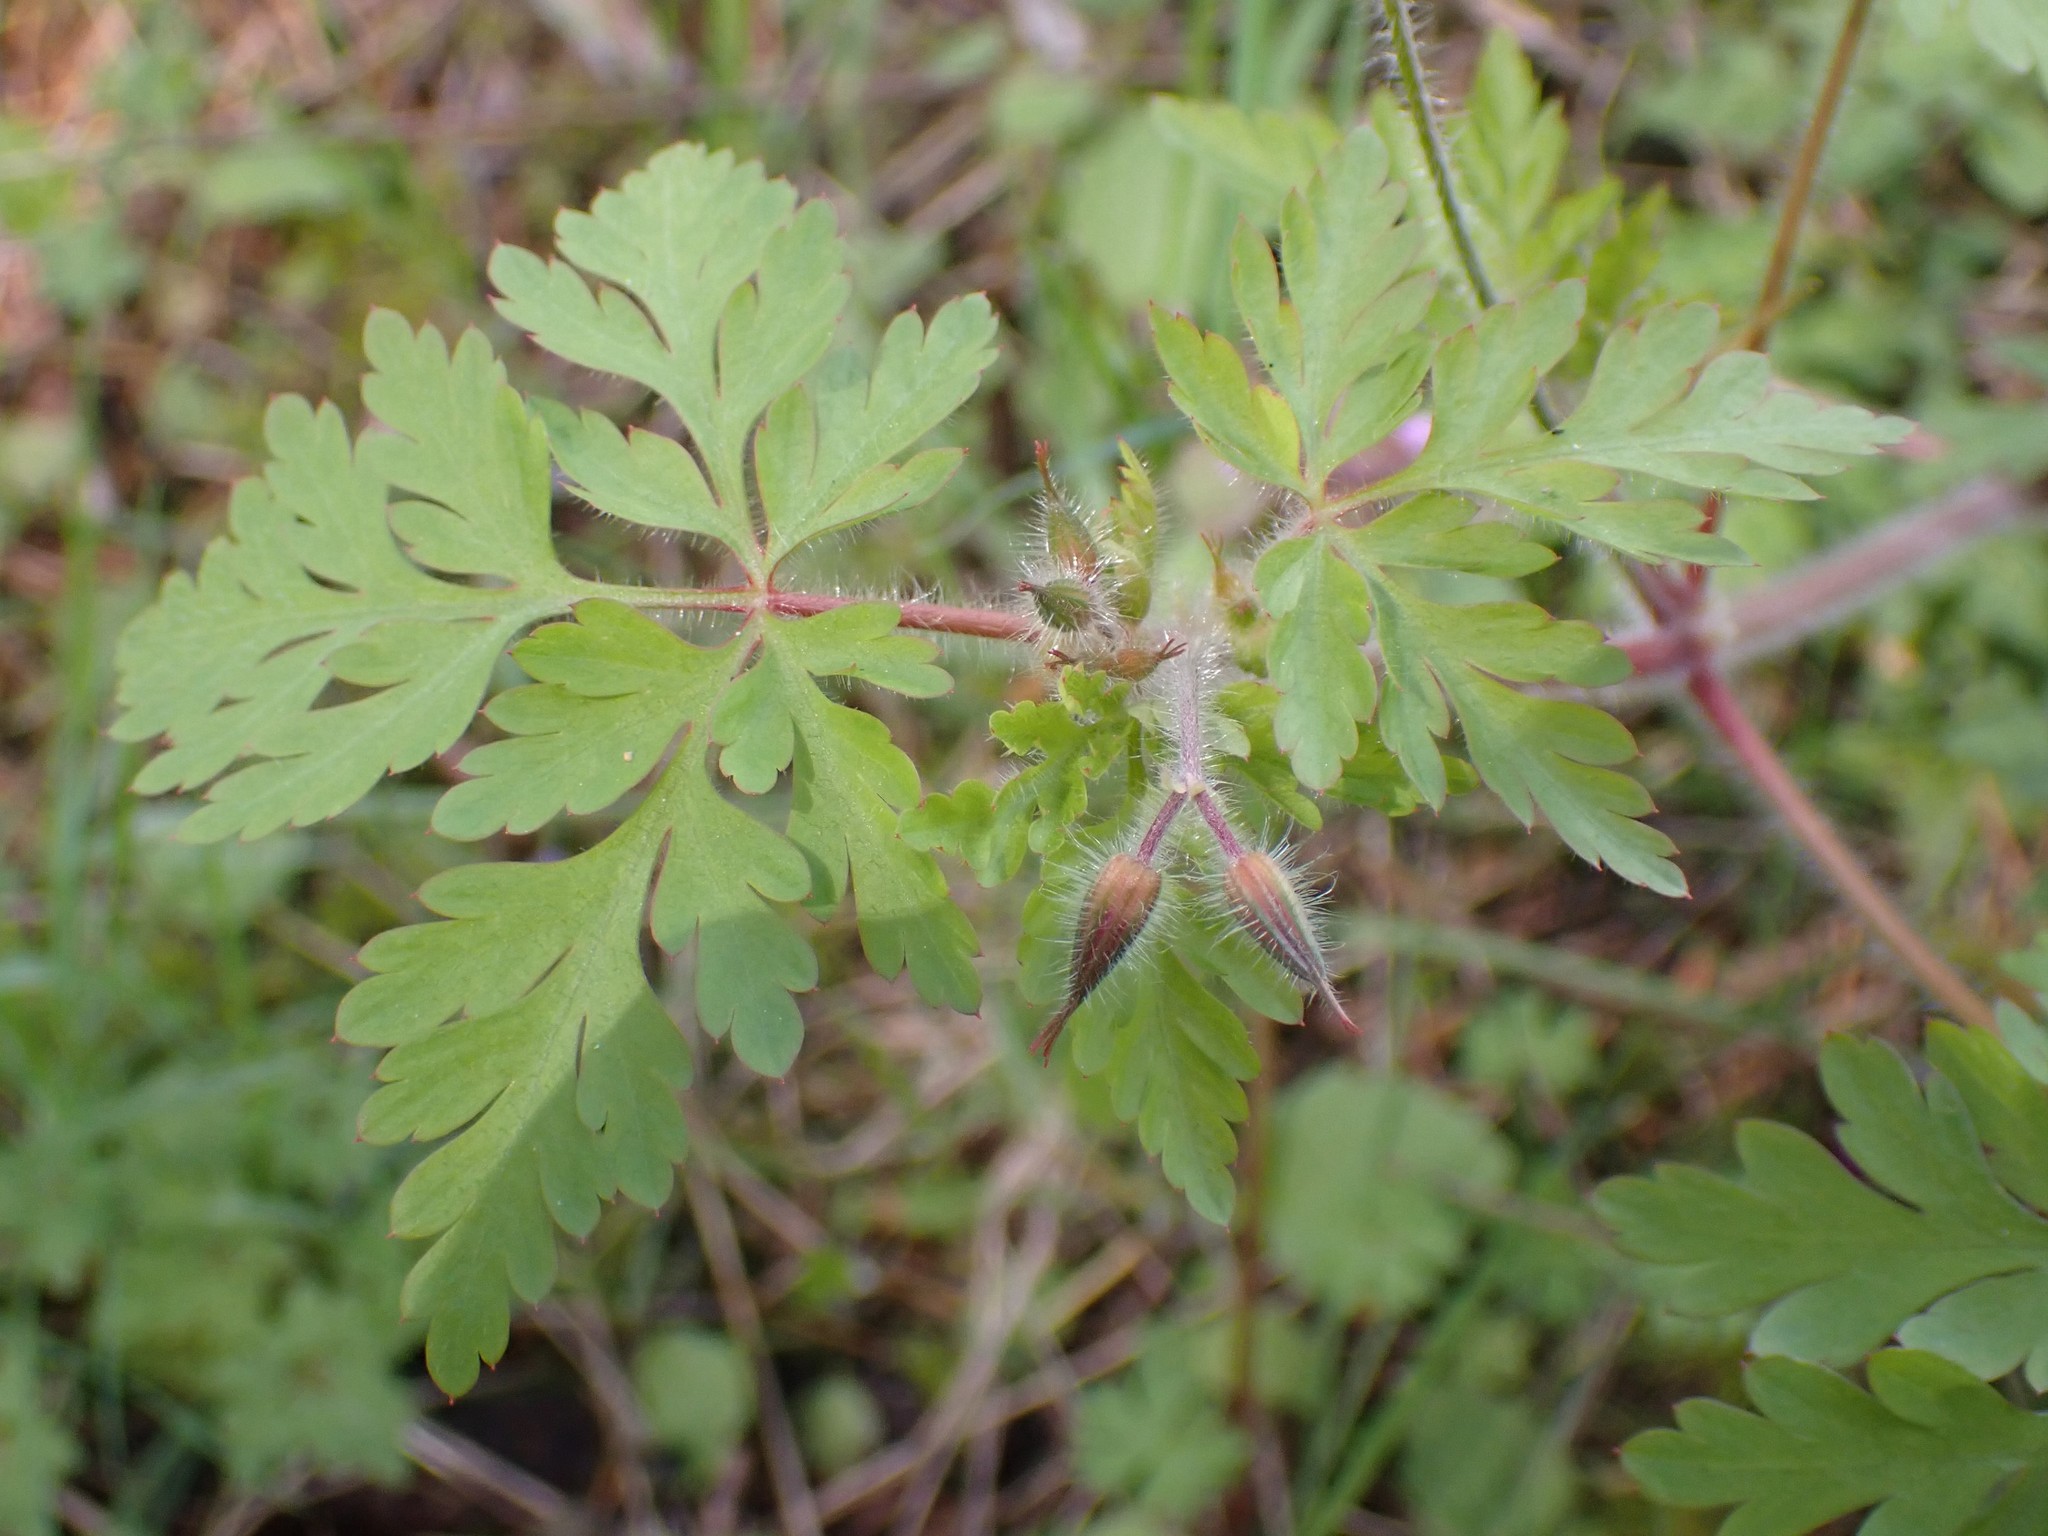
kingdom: Plantae
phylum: Tracheophyta
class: Magnoliopsida
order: Geraniales
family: Geraniaceae
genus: Geranium
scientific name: Geranium robertianum
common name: Herb-robert
